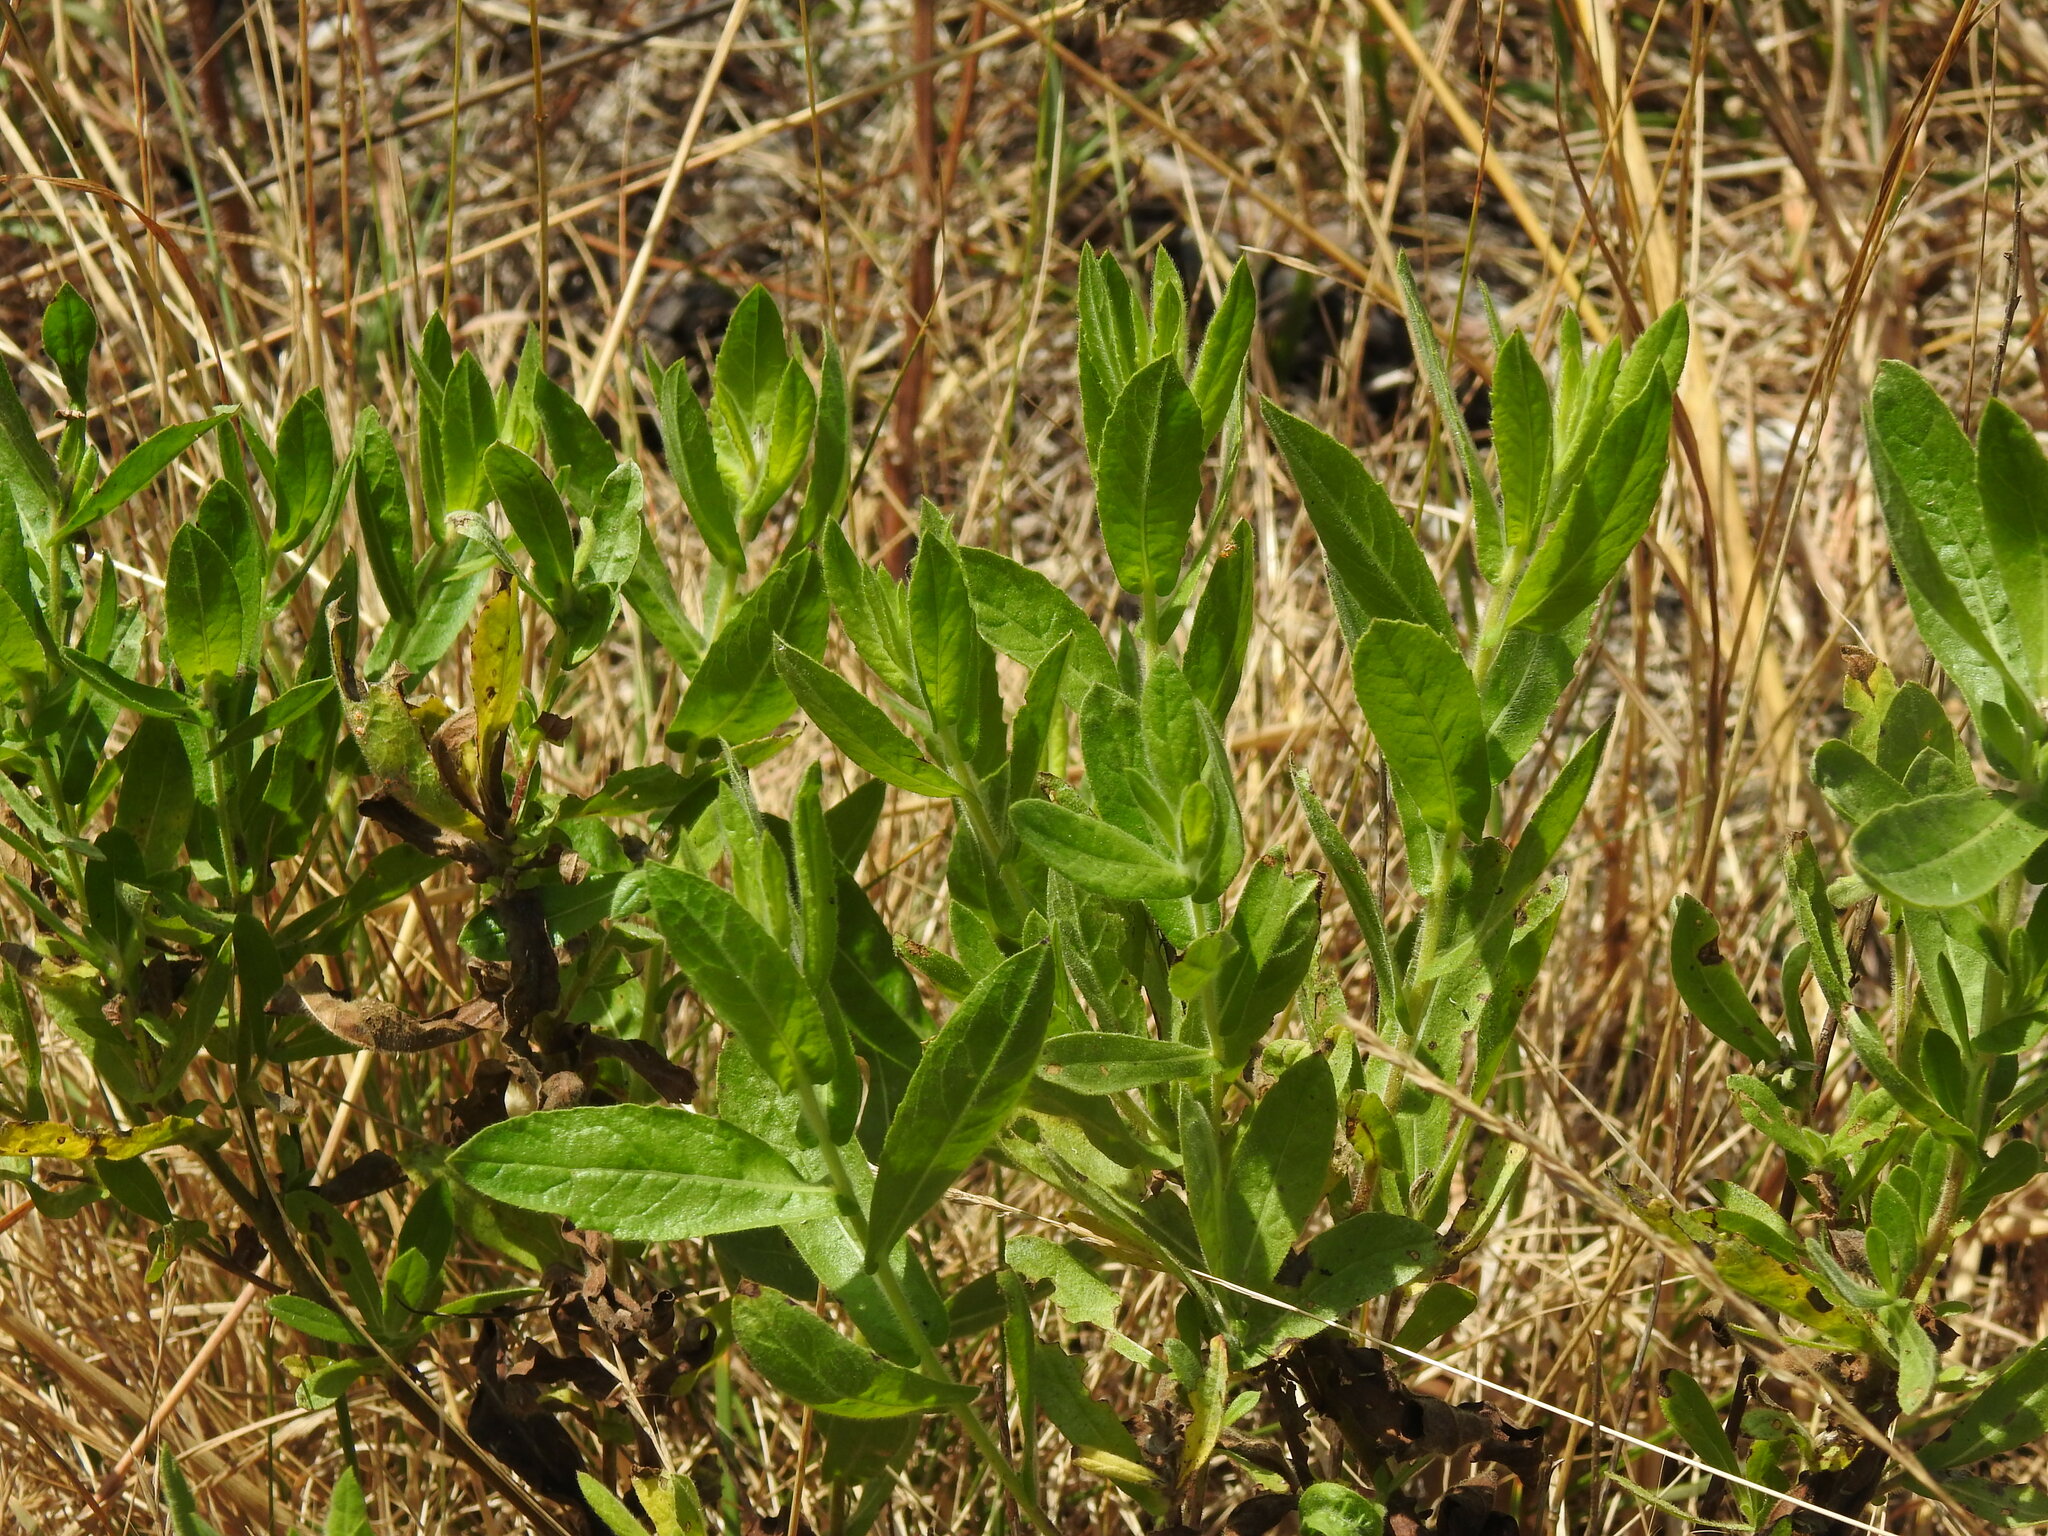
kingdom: Plantae
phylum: Tracheophyta
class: Magnoliopsida
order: Asterales
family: Asteraceae
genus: Dittrichia
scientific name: Dittrichia viscosa
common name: Woody fleabane
